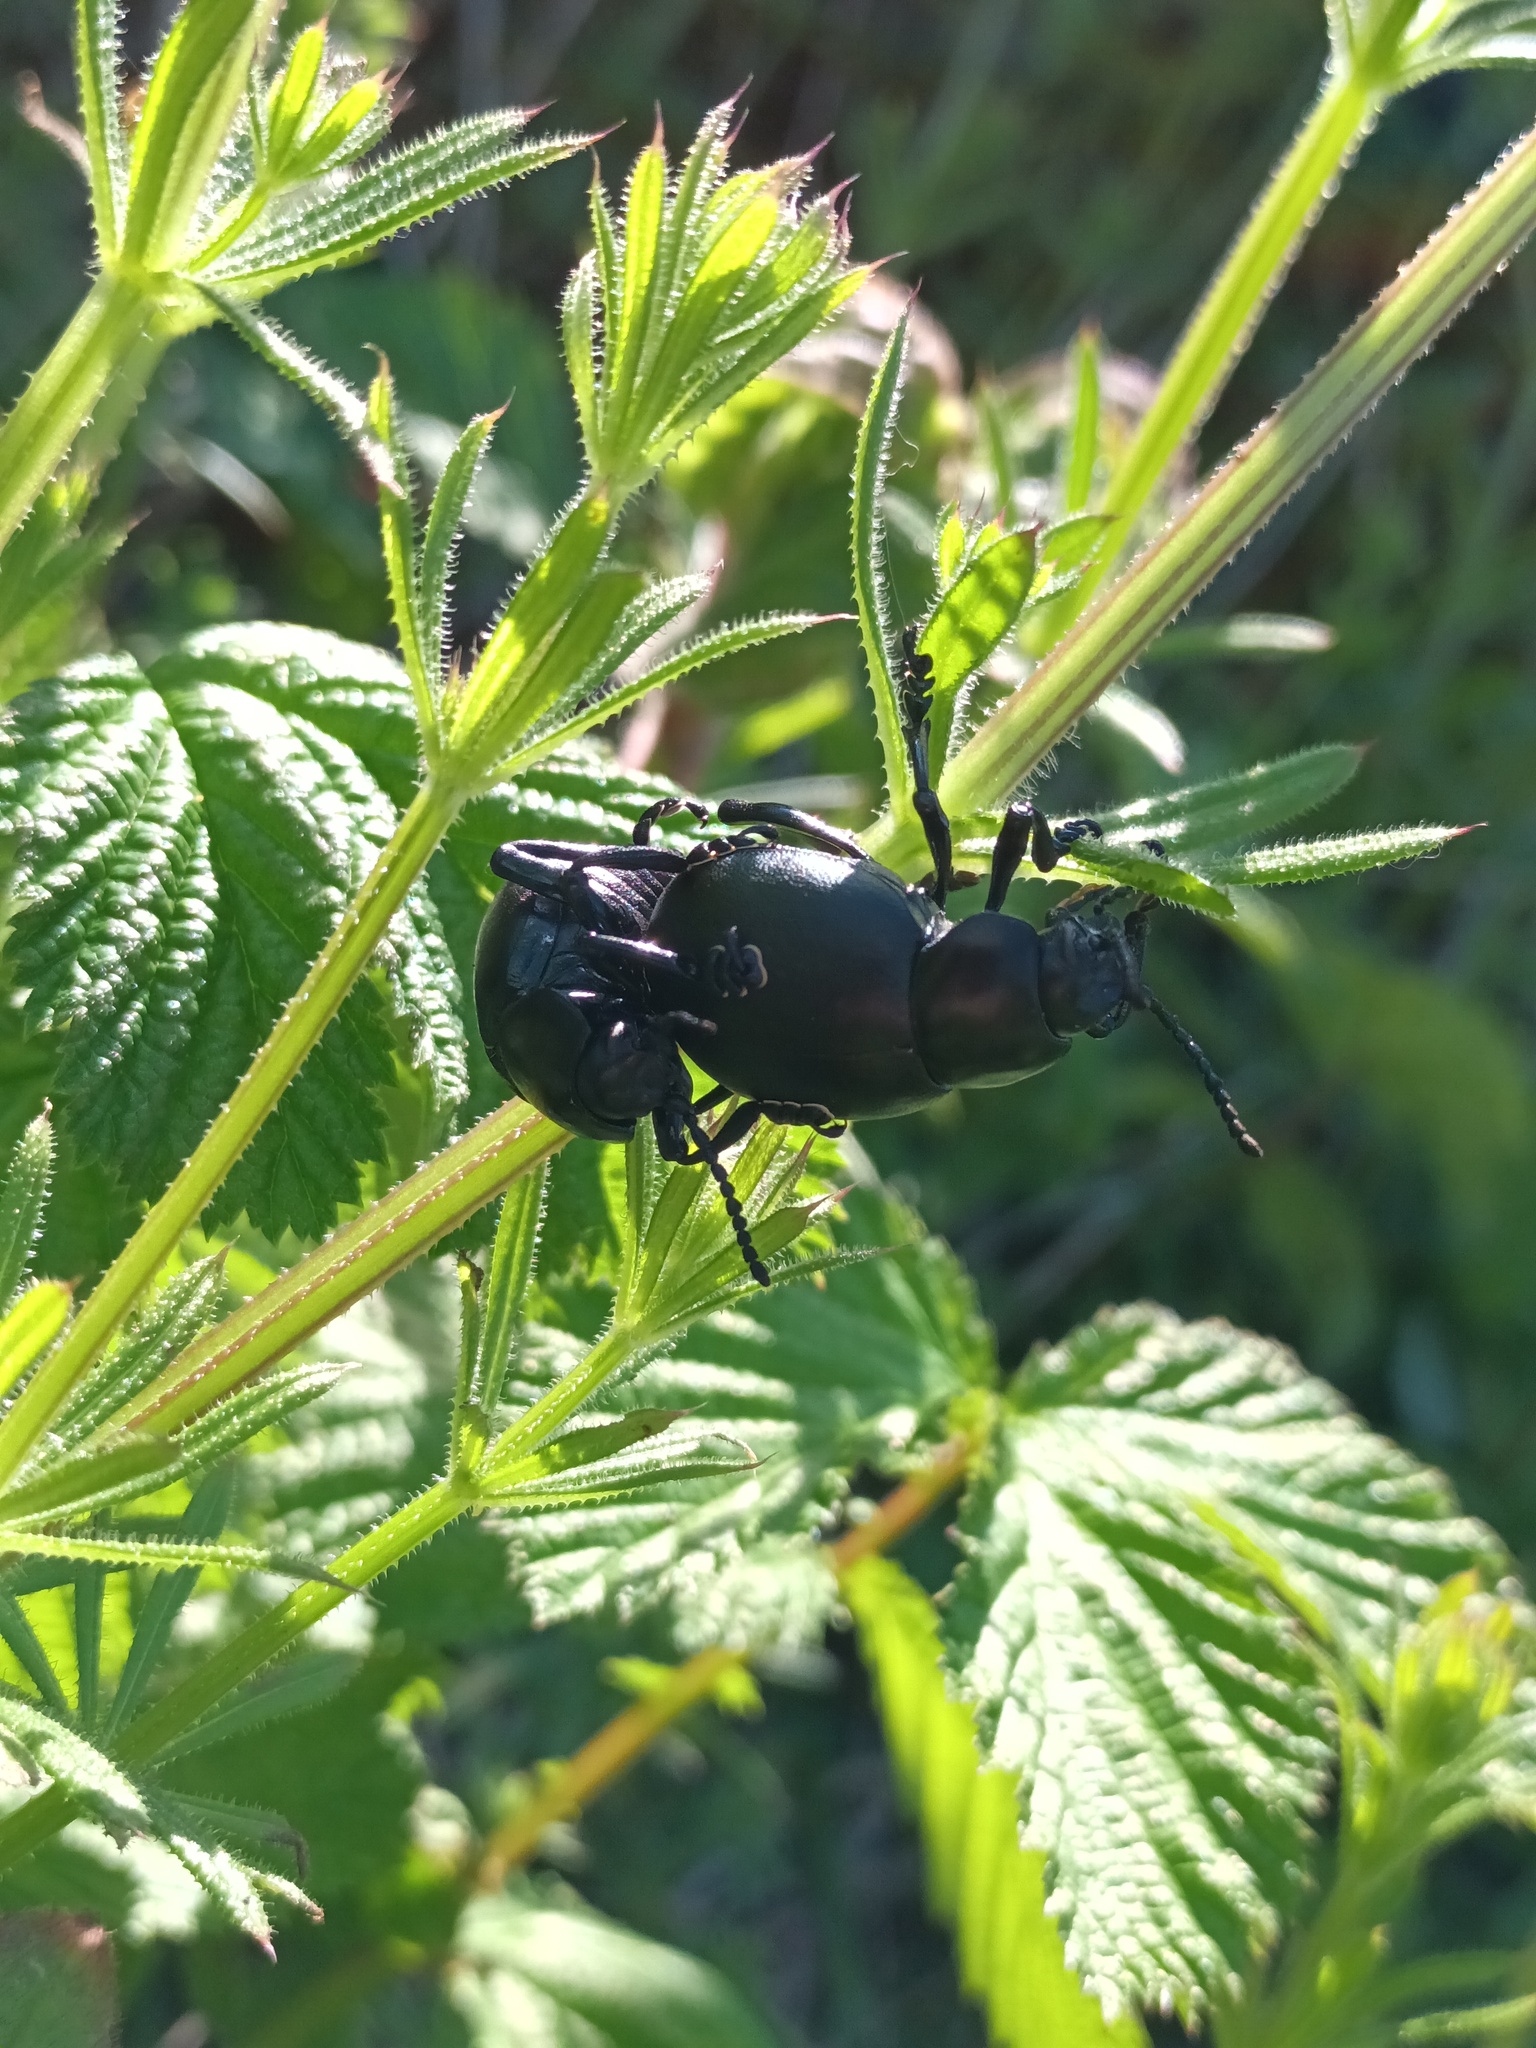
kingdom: Animalia
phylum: Arthropoda
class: Insecta
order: Coleoptera
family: Chrysomelidae
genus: Timarcha
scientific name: Timarcha tenebricosa
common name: Bloody-nosed beetle
